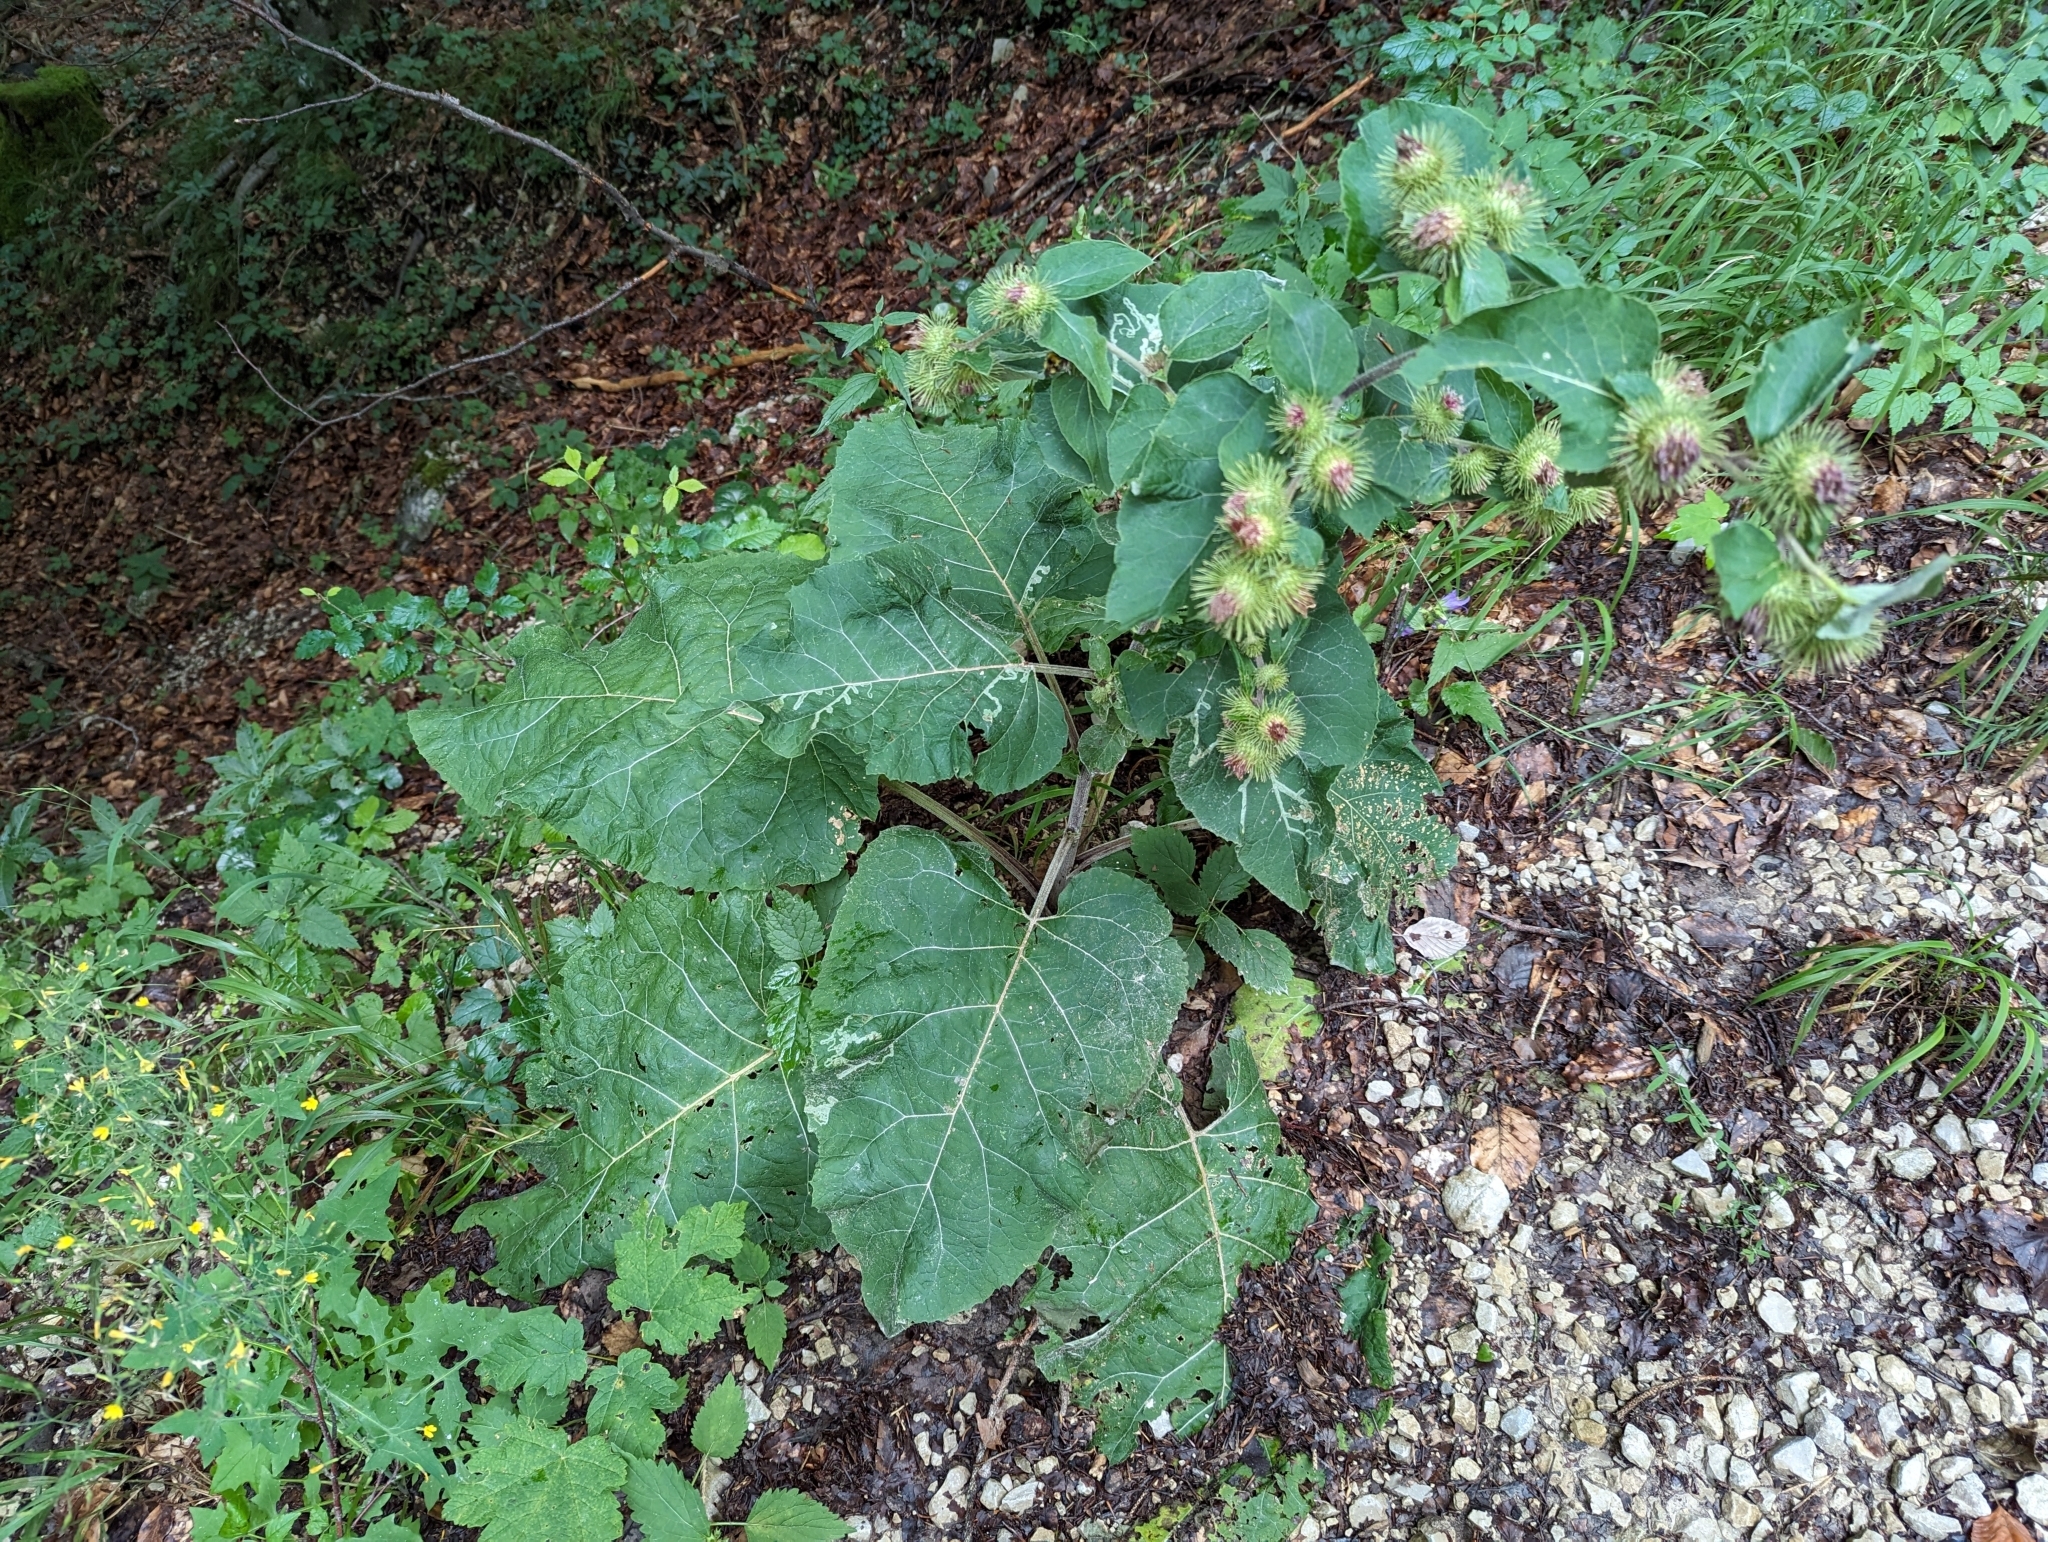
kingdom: Plantae
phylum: Tracheophyta
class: Magnoliopsida
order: Asterales
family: Asteraceae
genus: Arctium
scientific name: Arctium lappa
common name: Greater burdock
